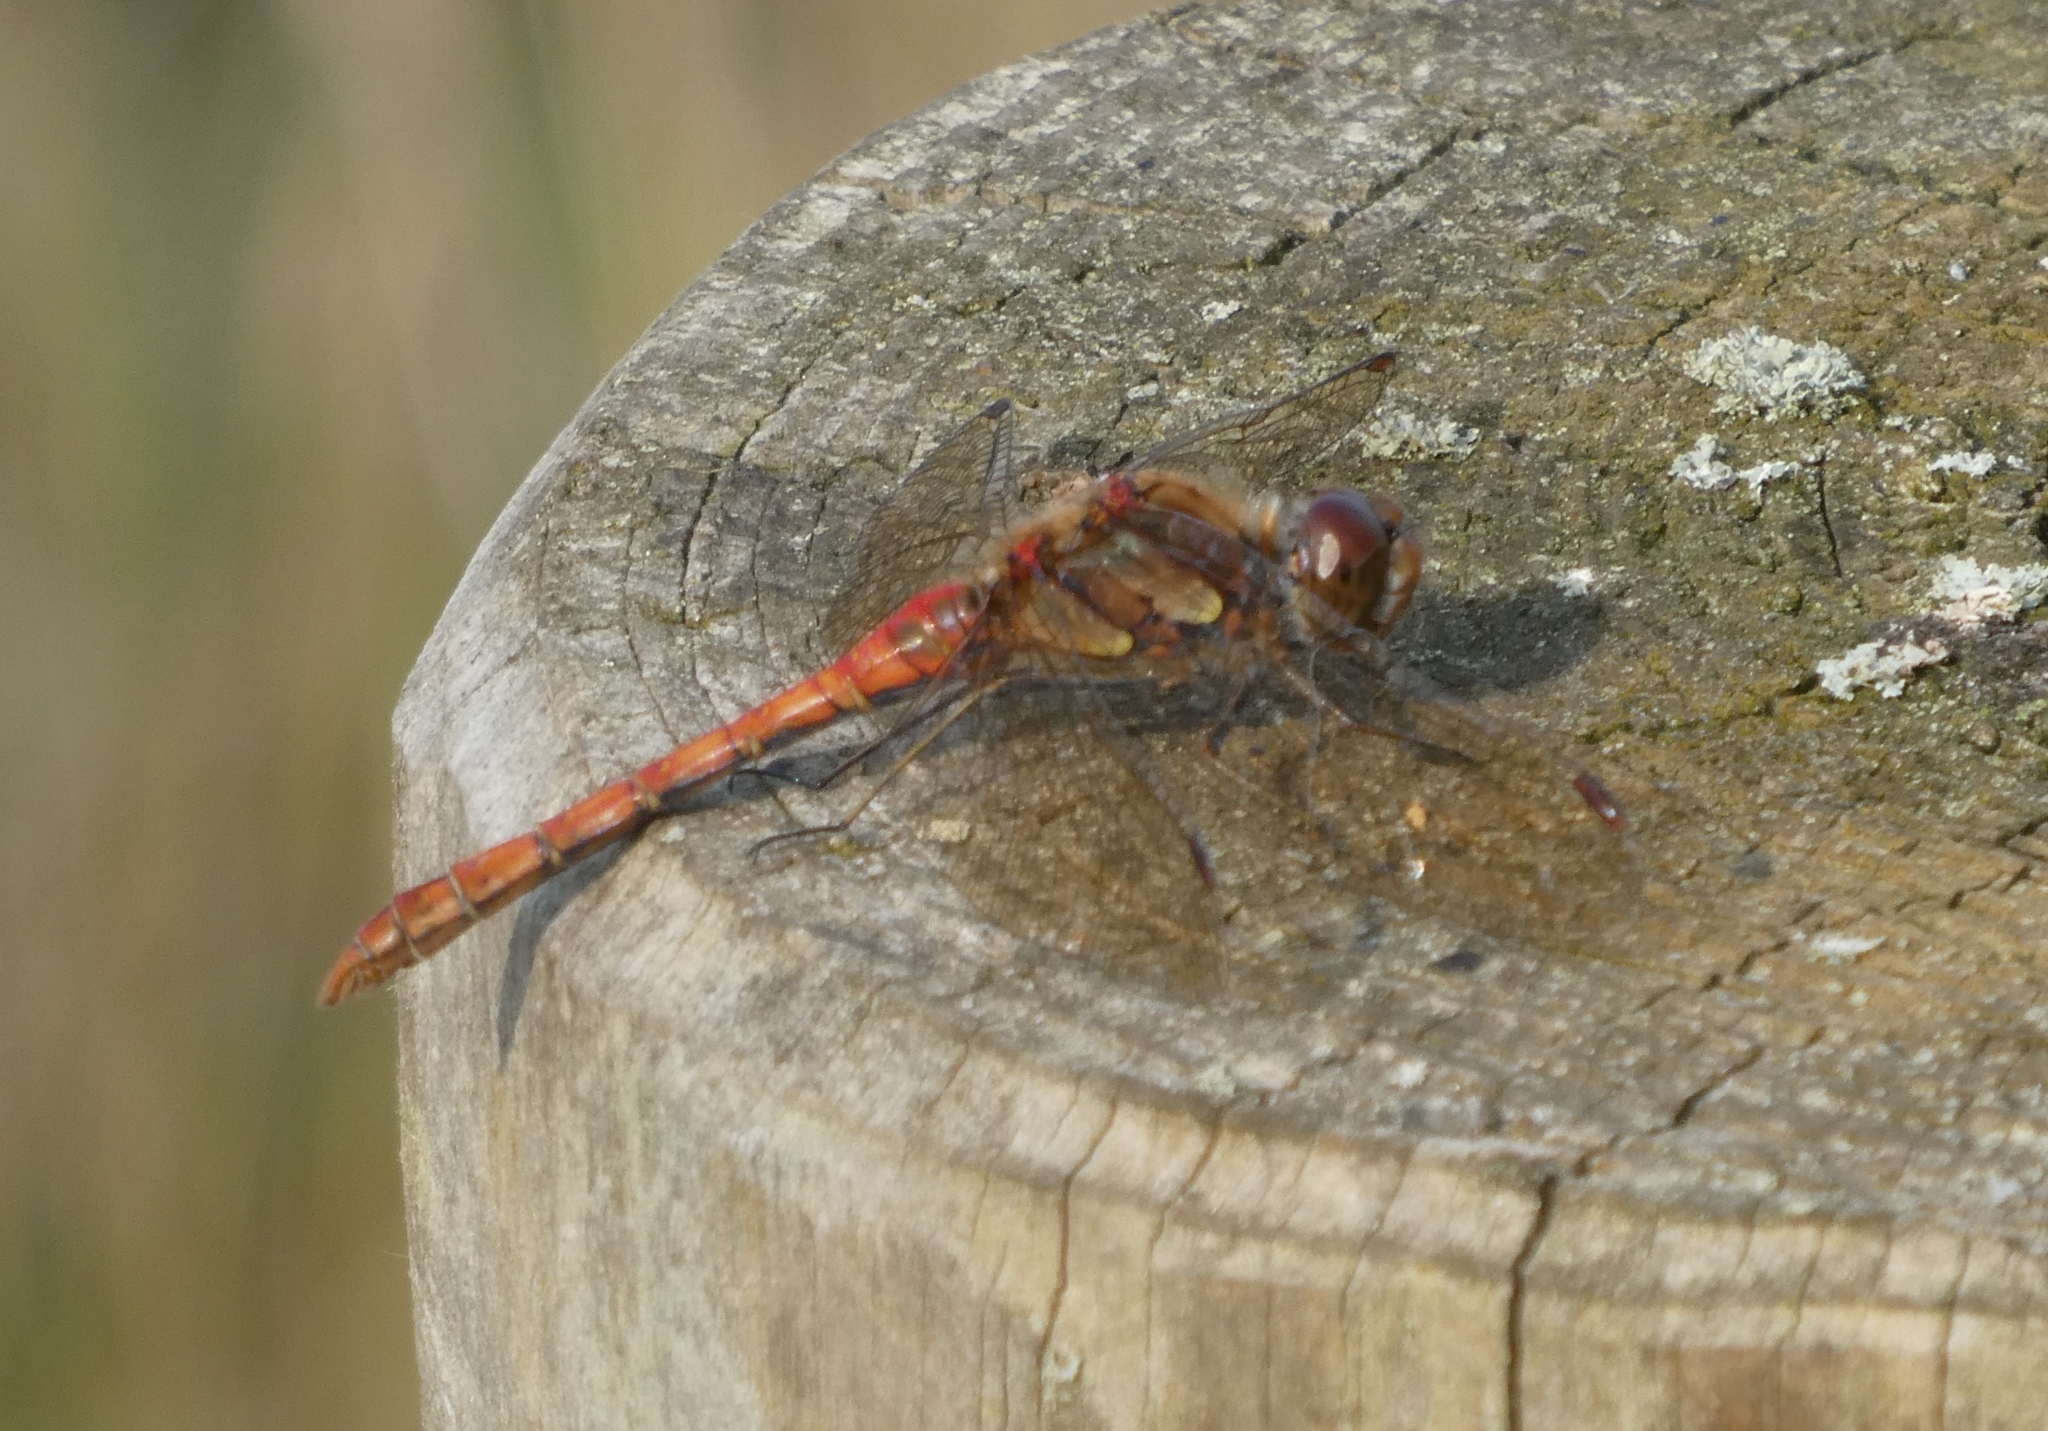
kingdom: Animalia
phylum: Arthropoda
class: Insecta
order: Odonata
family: Libellulidae
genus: Sympetrum
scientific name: Sympetrum striolatum
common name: Common darter
